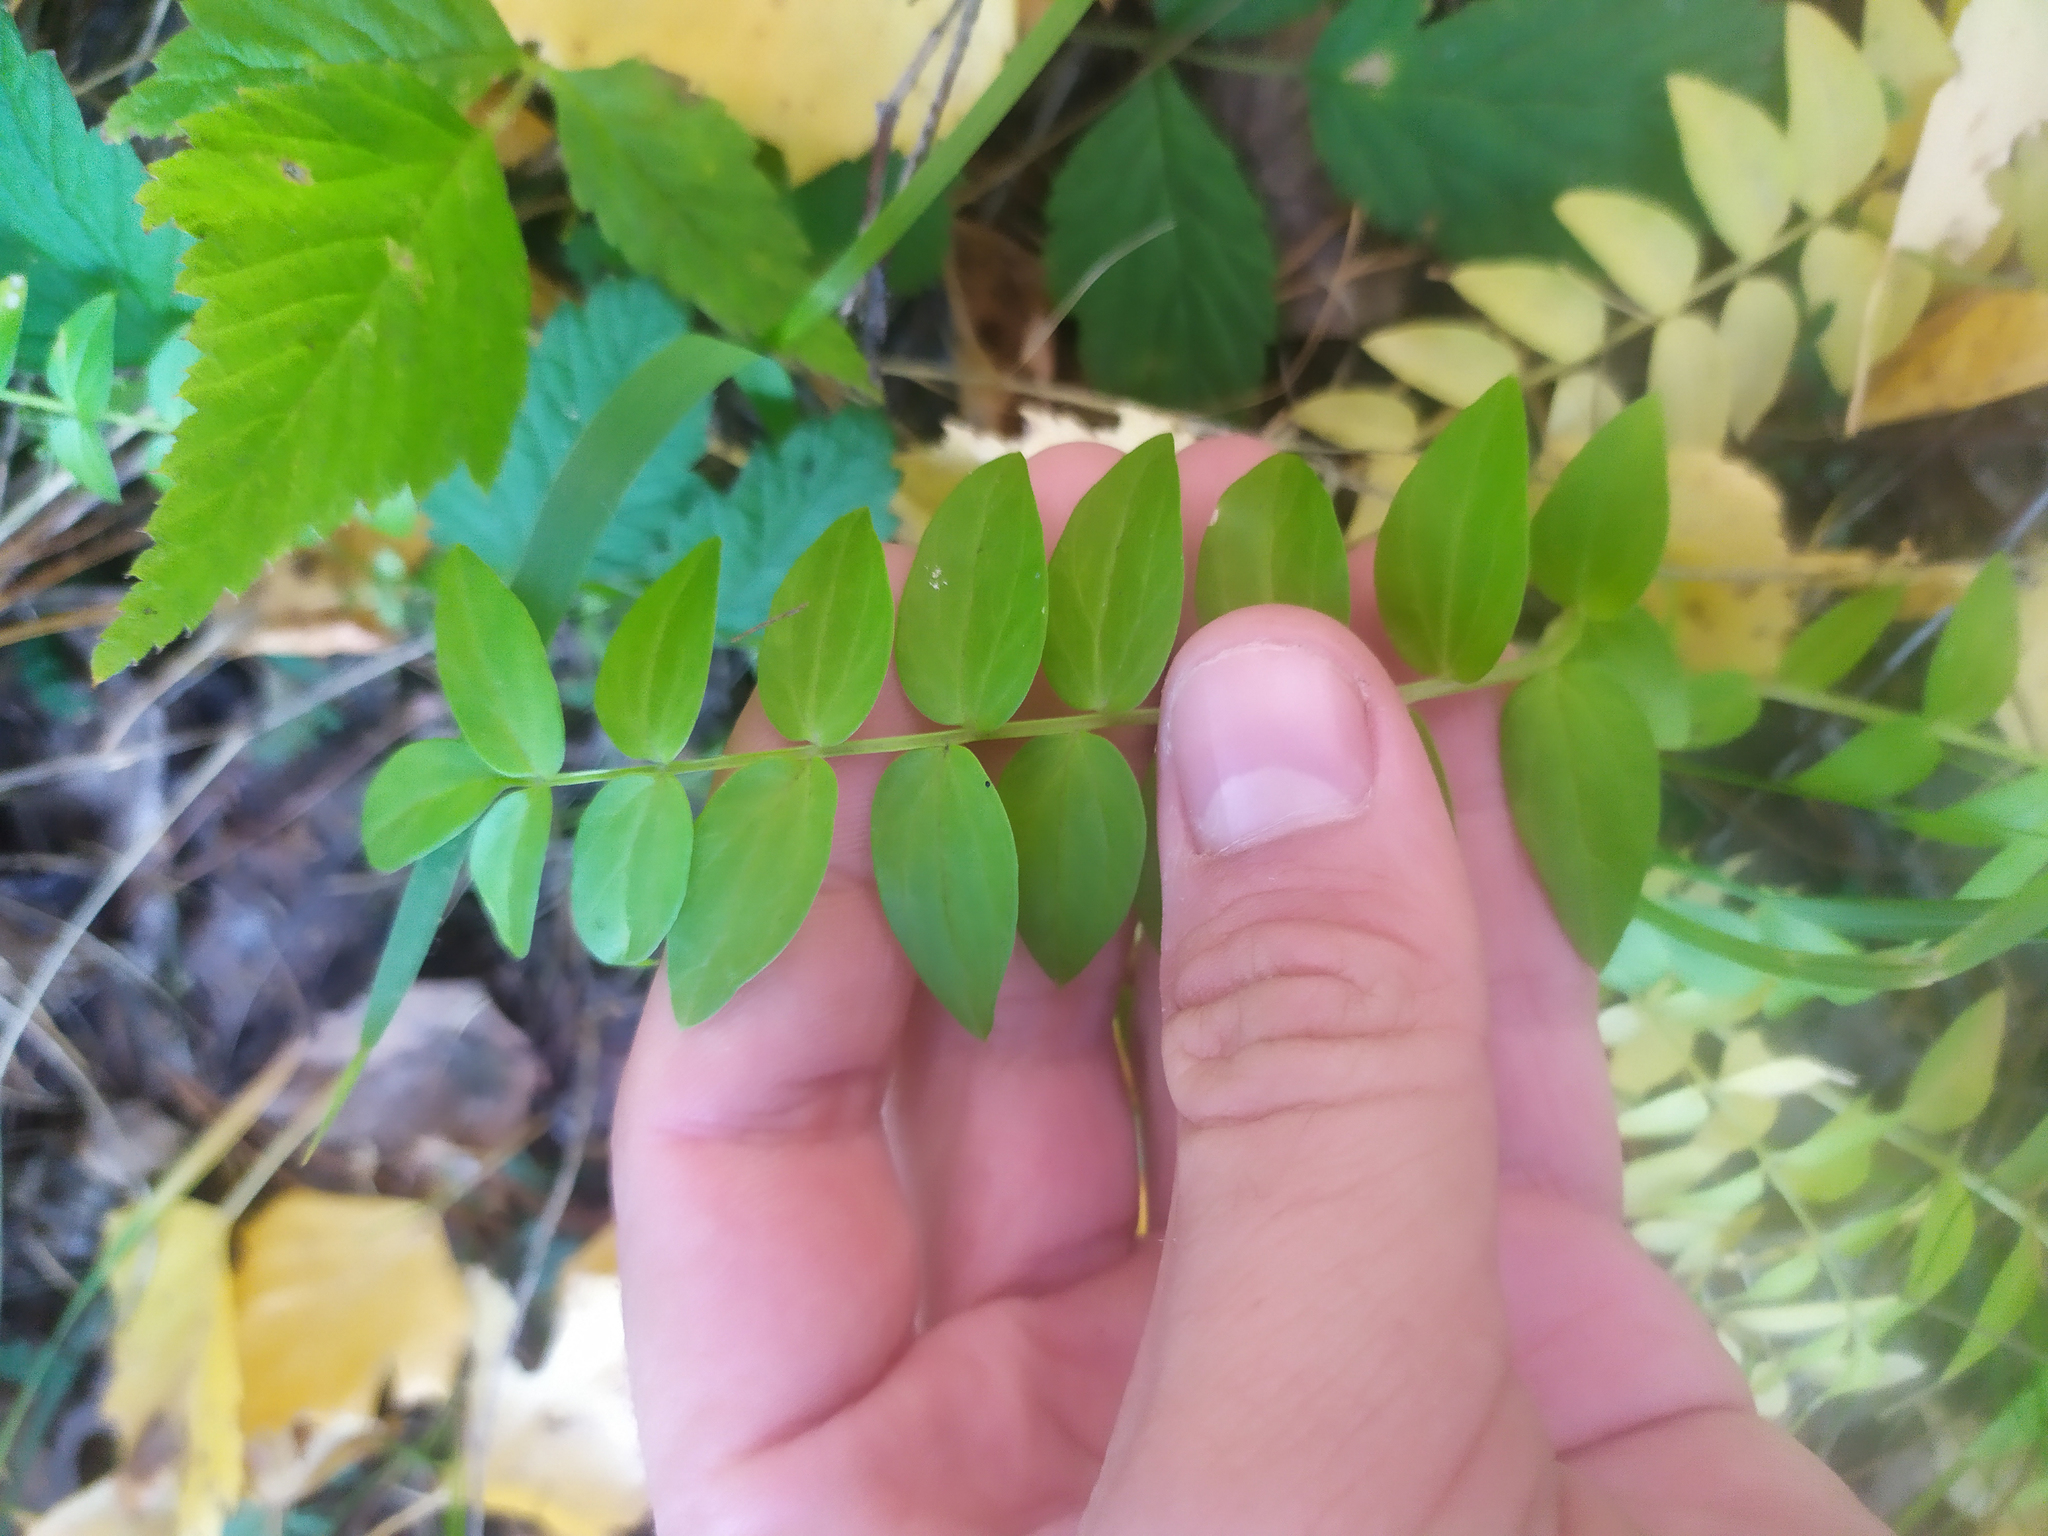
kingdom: Plantae
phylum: Tracheophyta
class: Magnoliopsida
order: Ericales
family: Polemoniaceae
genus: Polemonium
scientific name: Polemonium caeruleum
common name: Jacob's-ladder
